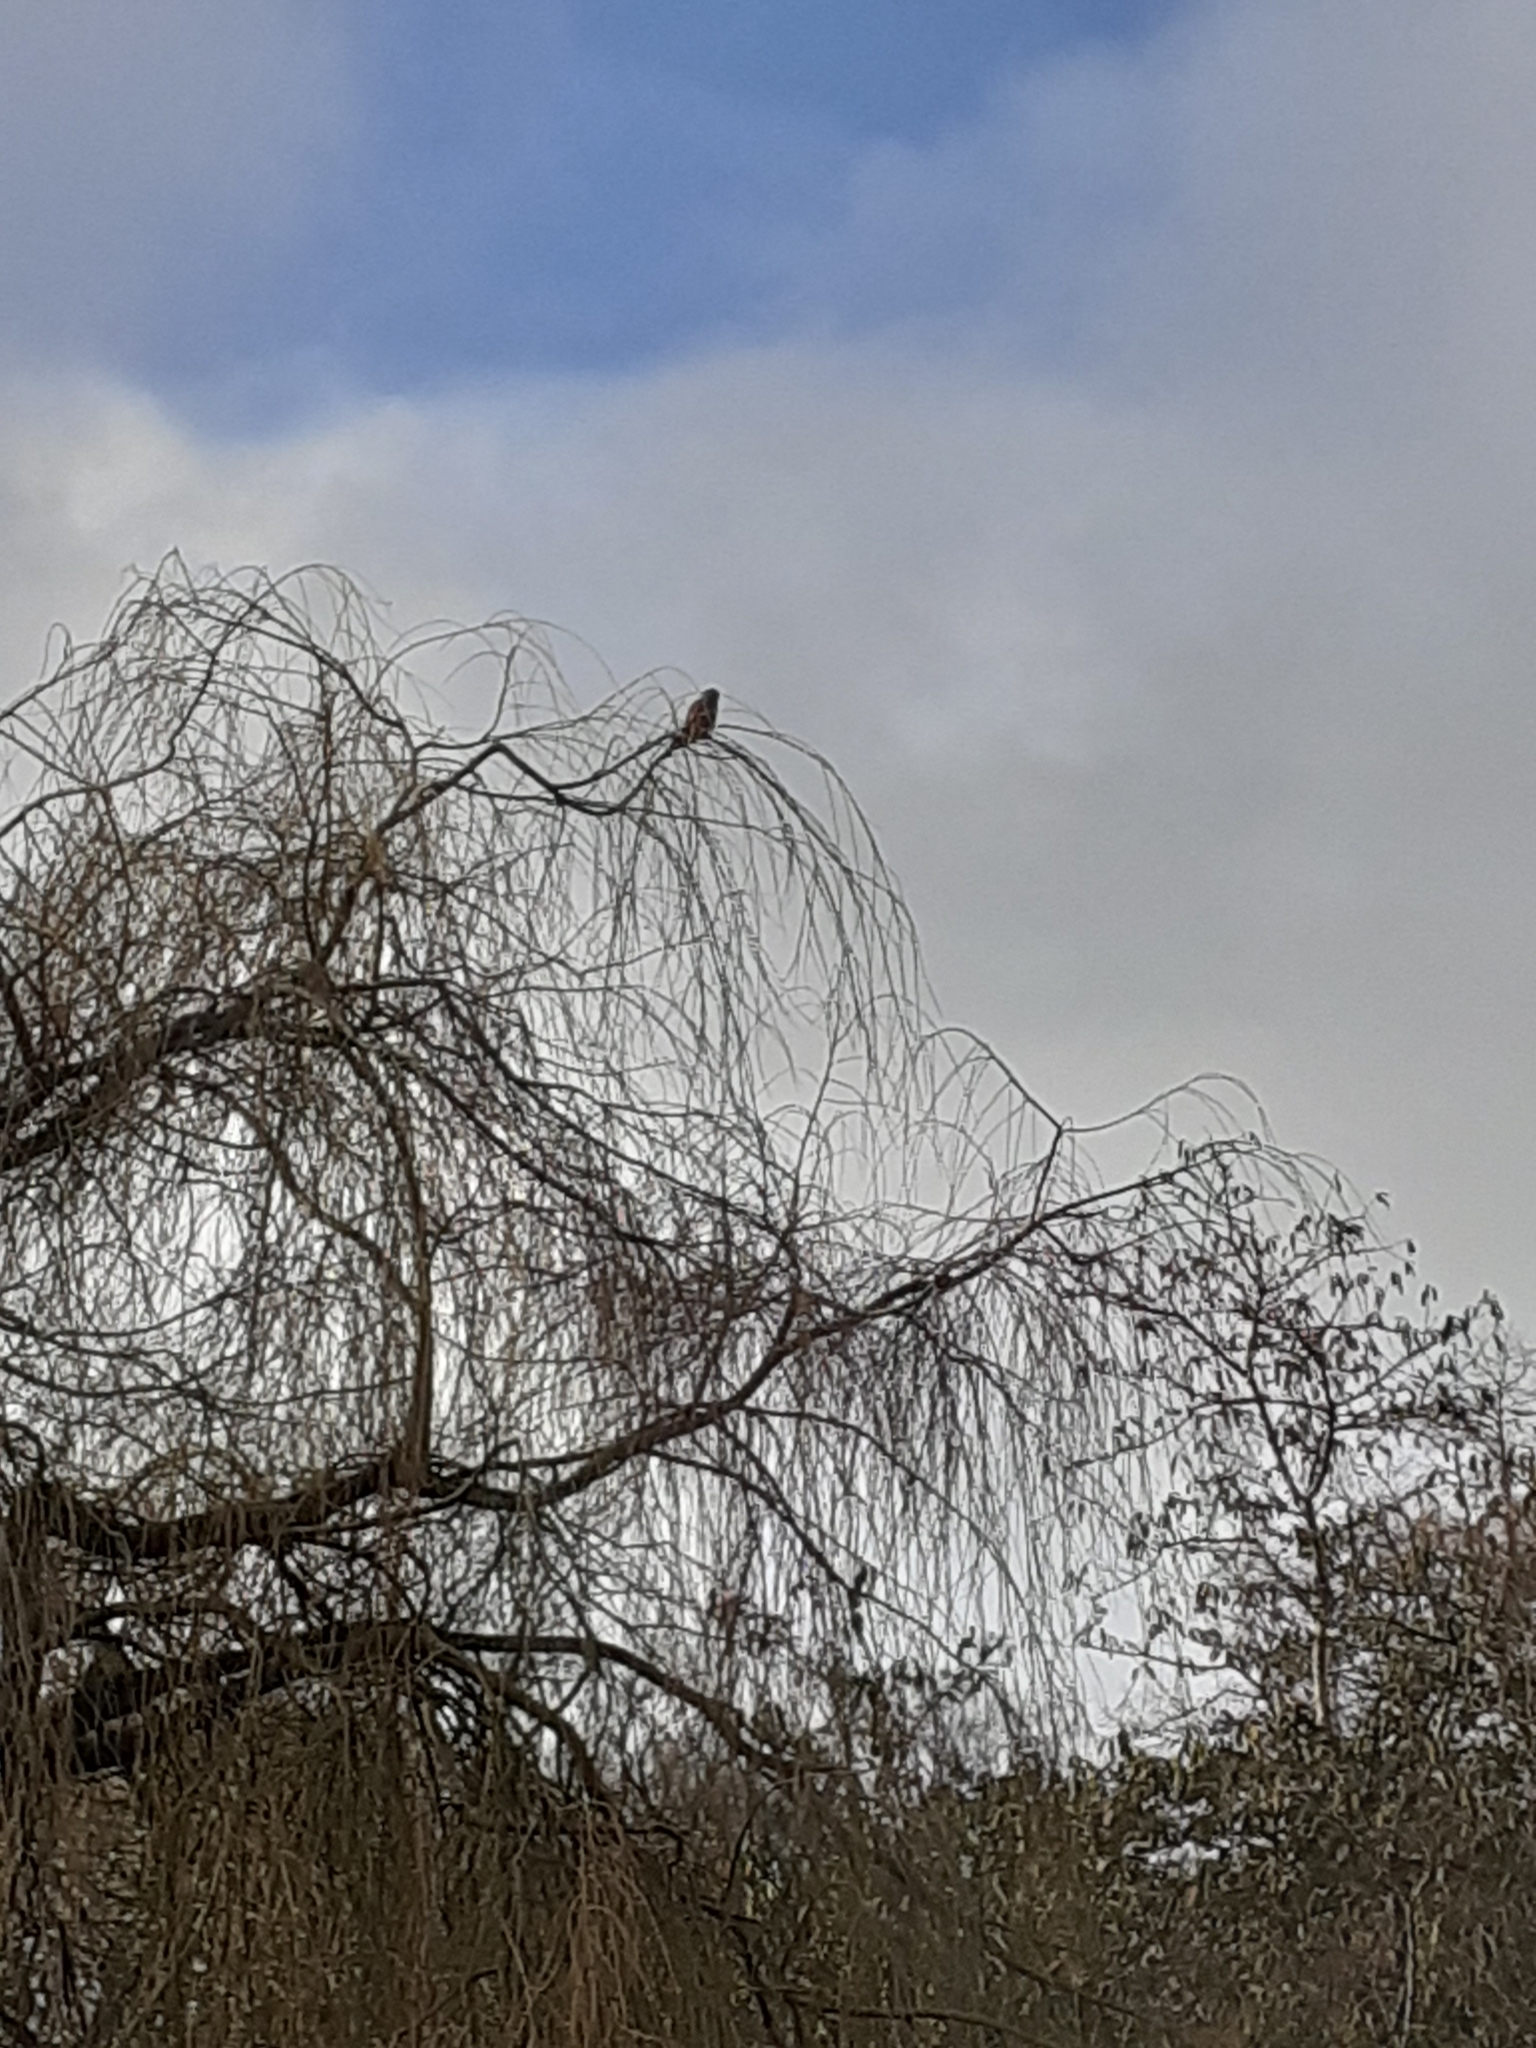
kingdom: Animalia
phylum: Chordata
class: Aves
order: Falconiformes
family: Falconidae
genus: Falco
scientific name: Falco tinnunculus
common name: Common kestrel
